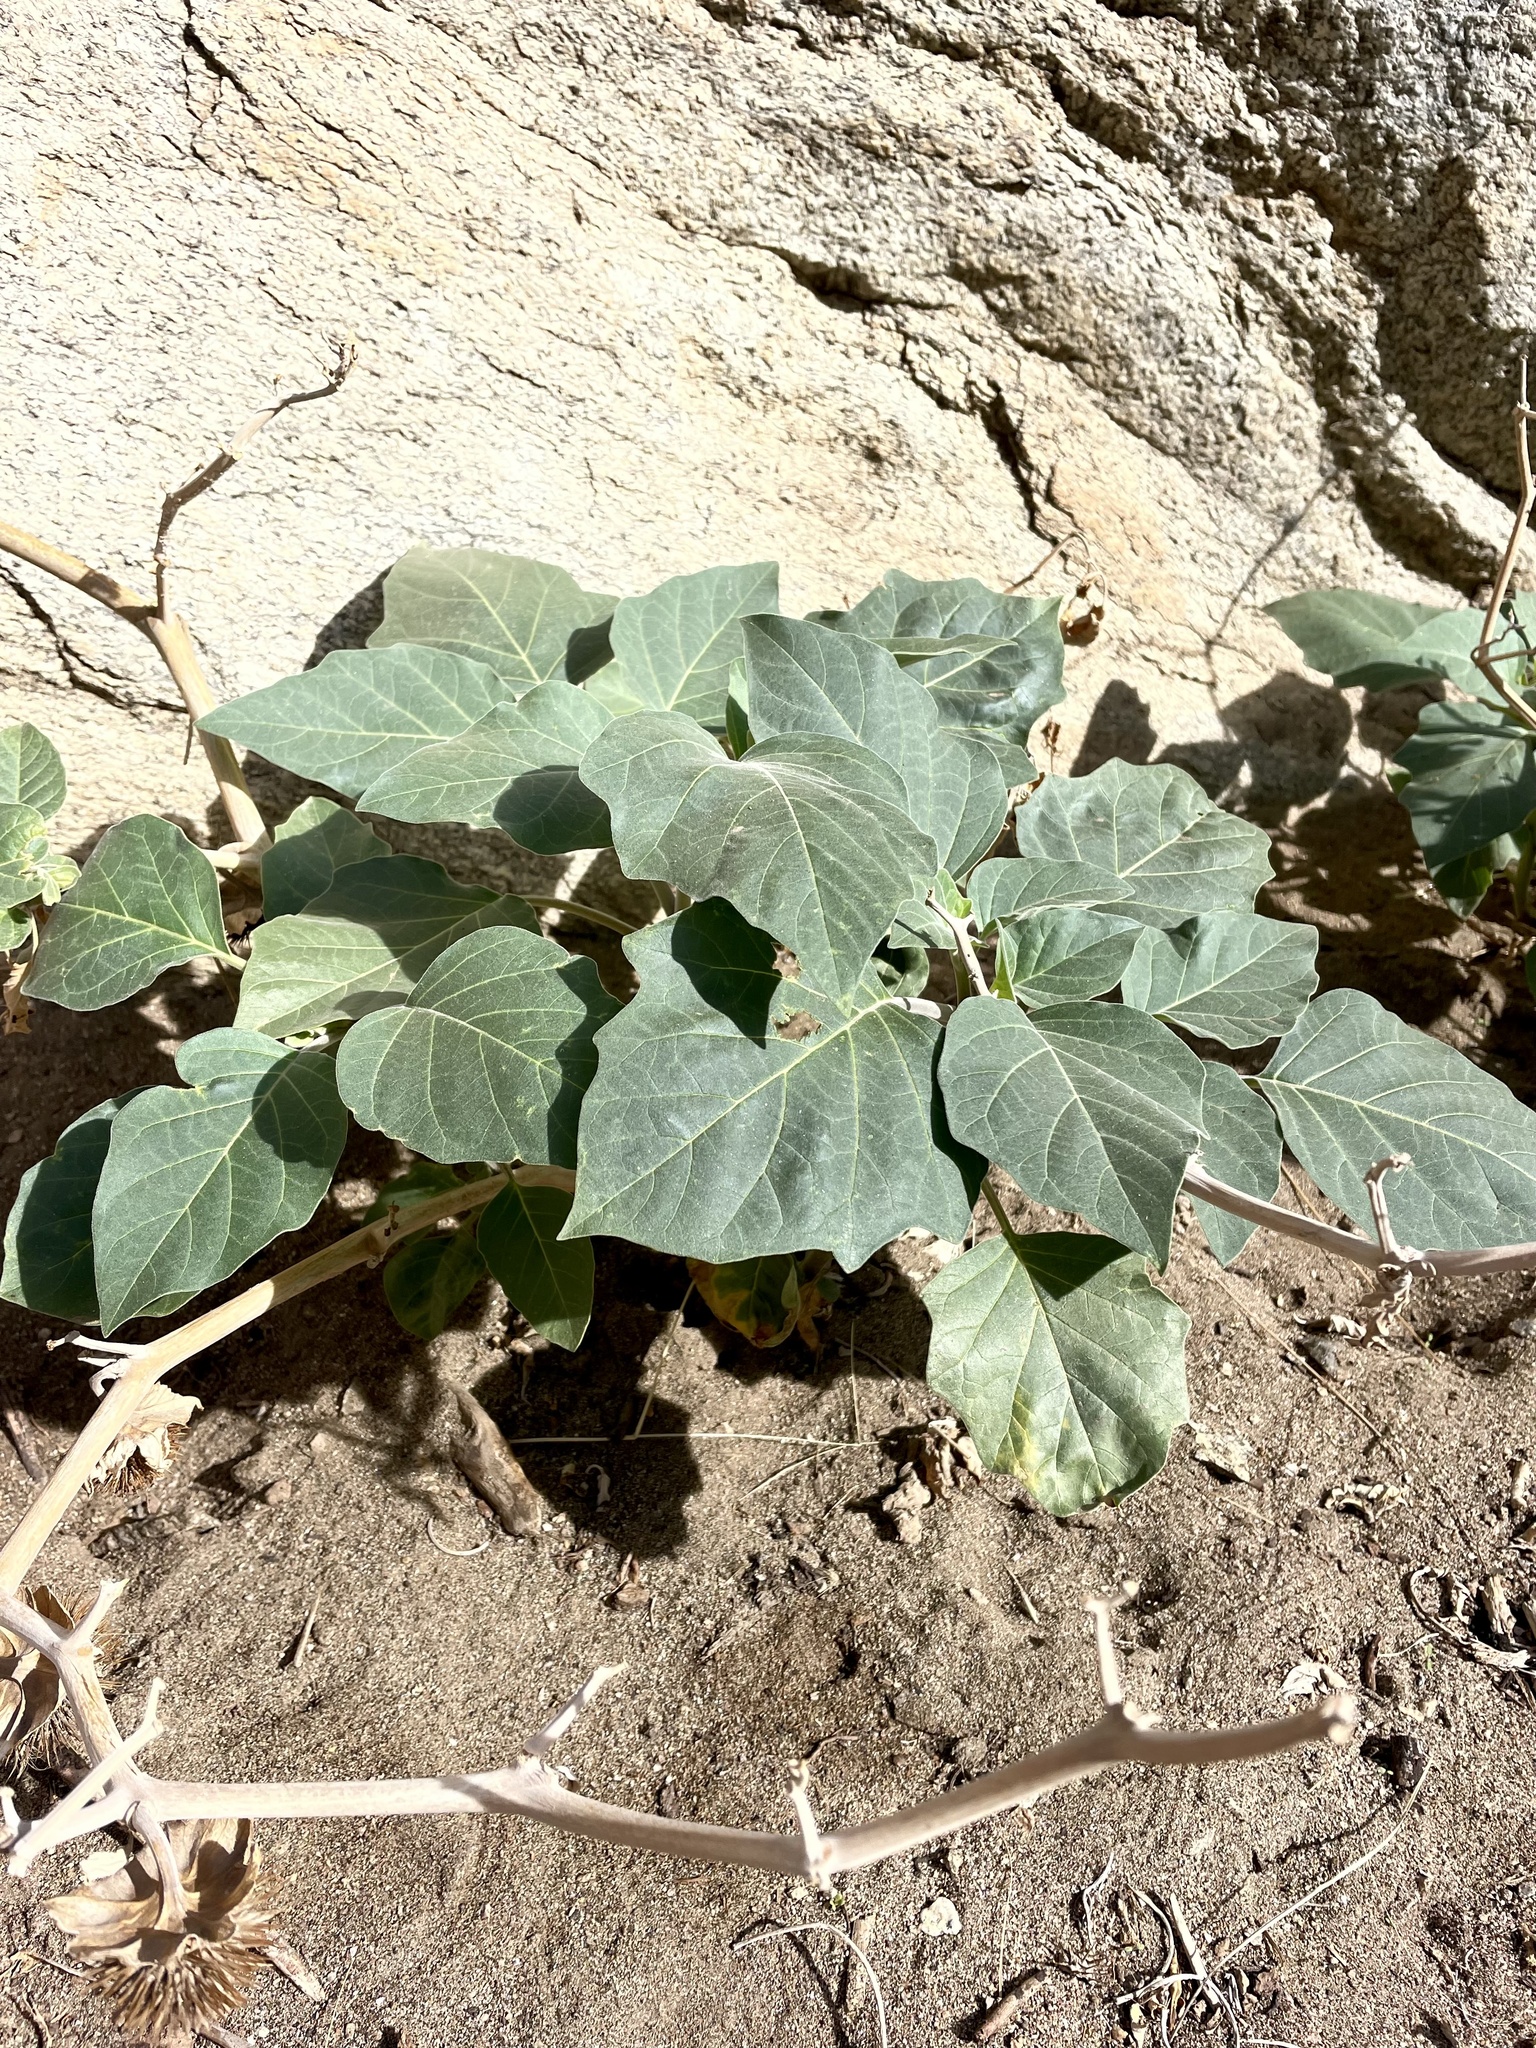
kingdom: Plantae
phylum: Tracheophyta
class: Magnoliopsida
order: Solanales
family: Solanaceae
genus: Datura
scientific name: Datura wrightii
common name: Sacred thorn-apple
